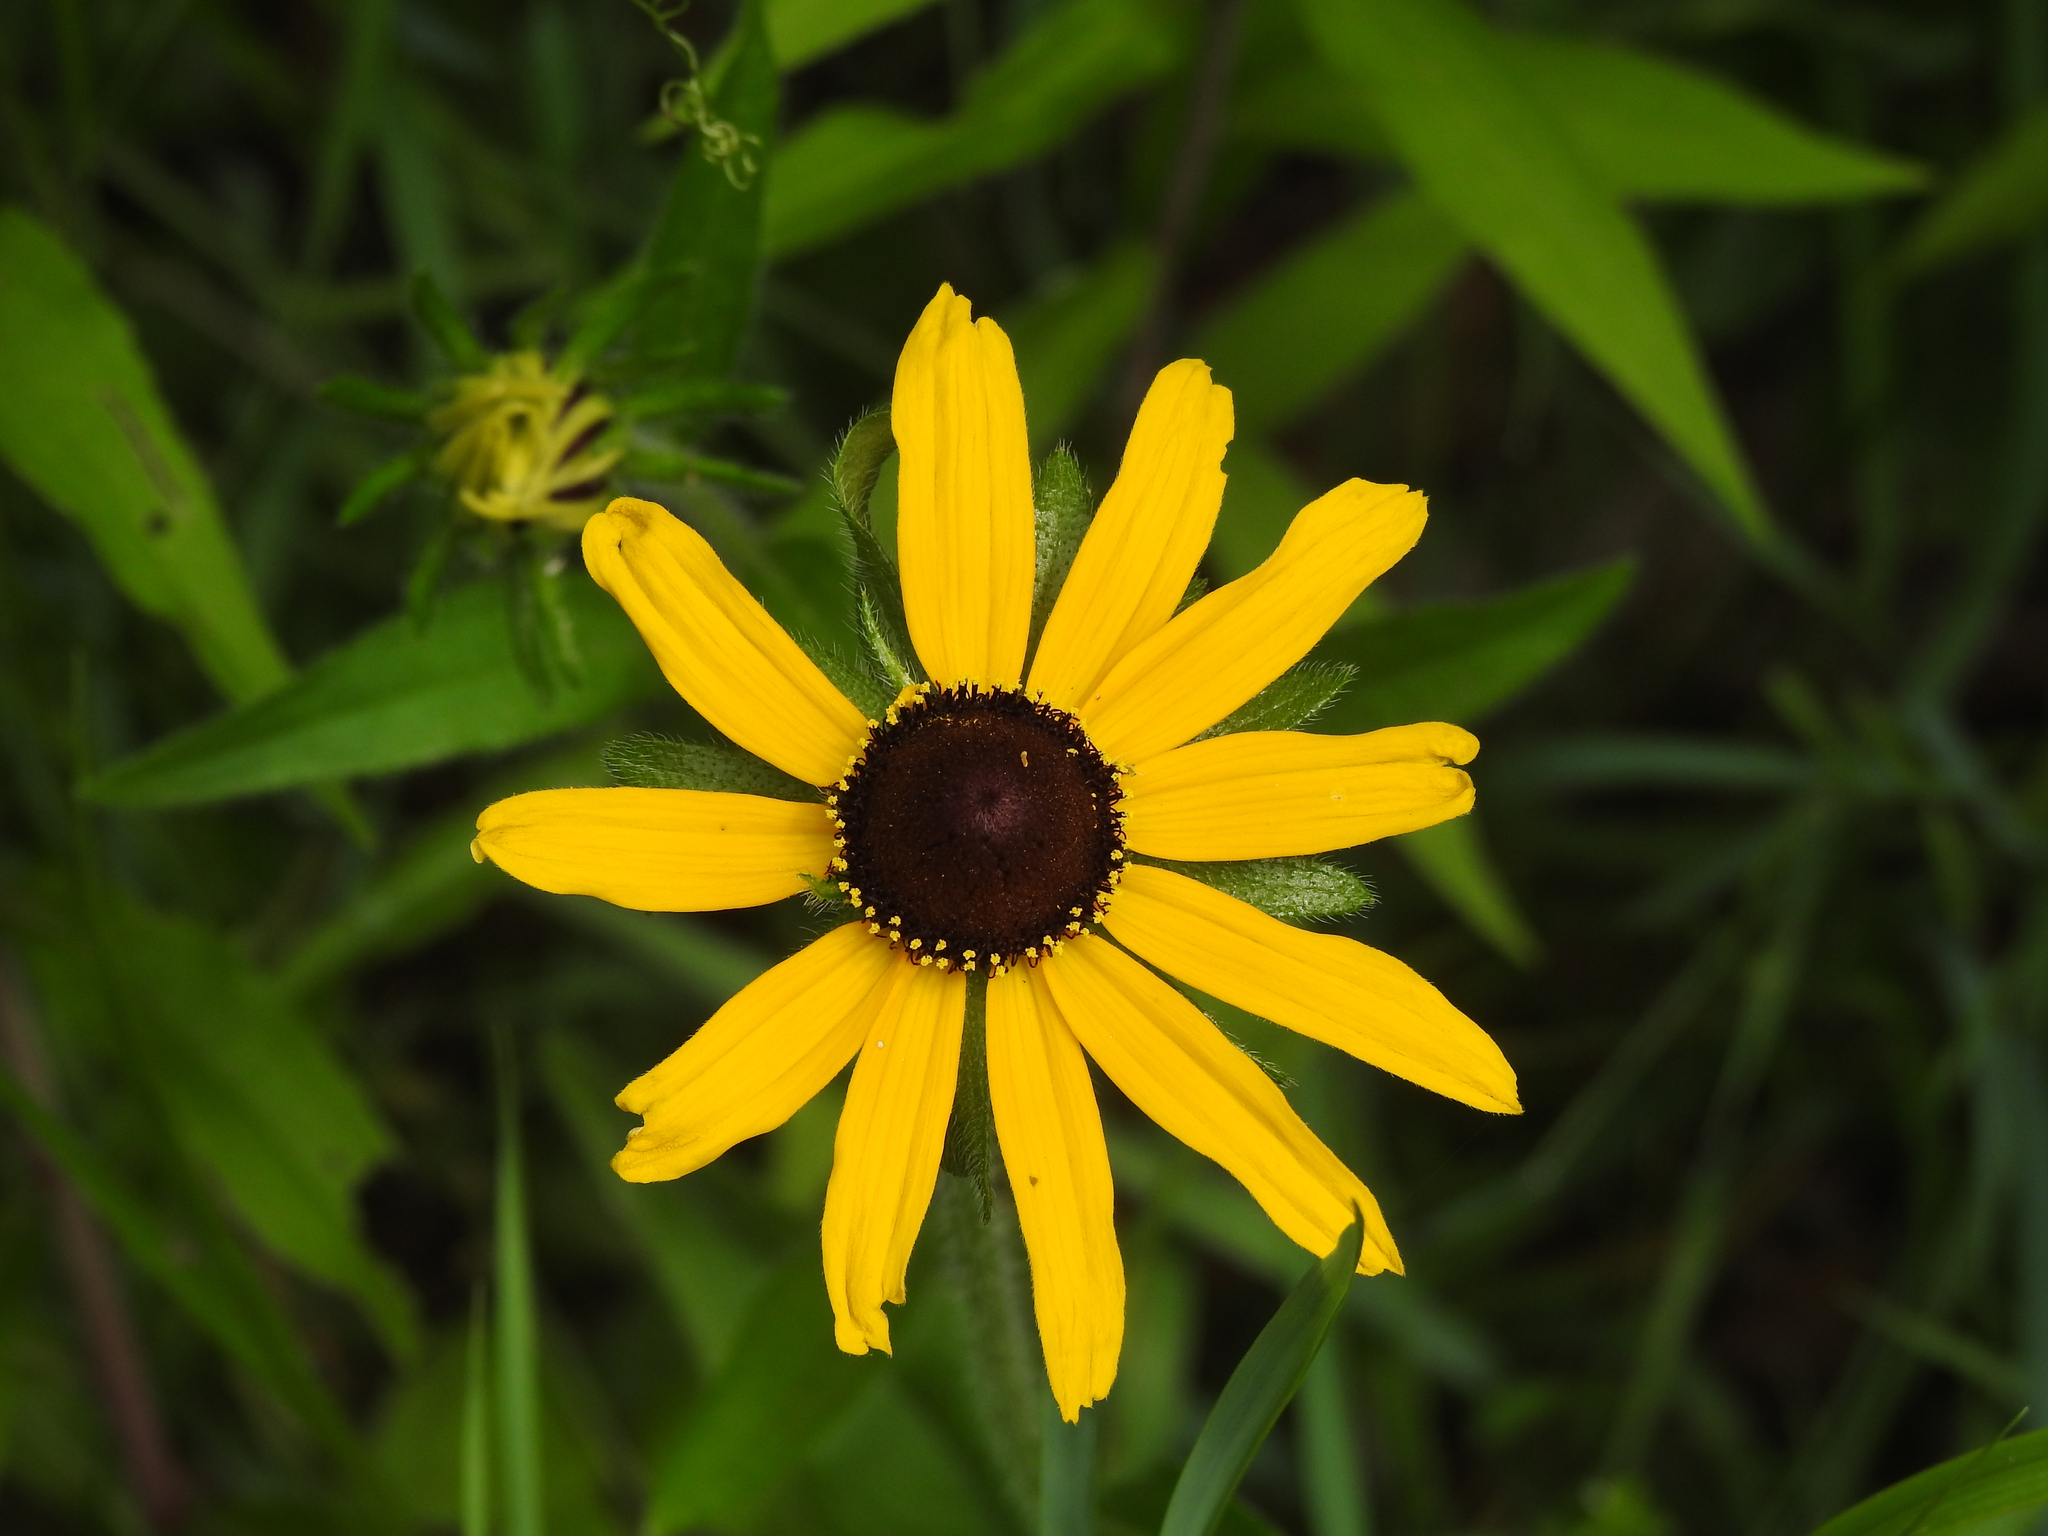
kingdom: Plantae
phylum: Tracheophyta
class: Magnoliopsida
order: Asterales
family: Asteraceae
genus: Rudbeckia
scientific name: Rudbeckia hirta
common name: Black-eyed-susan
